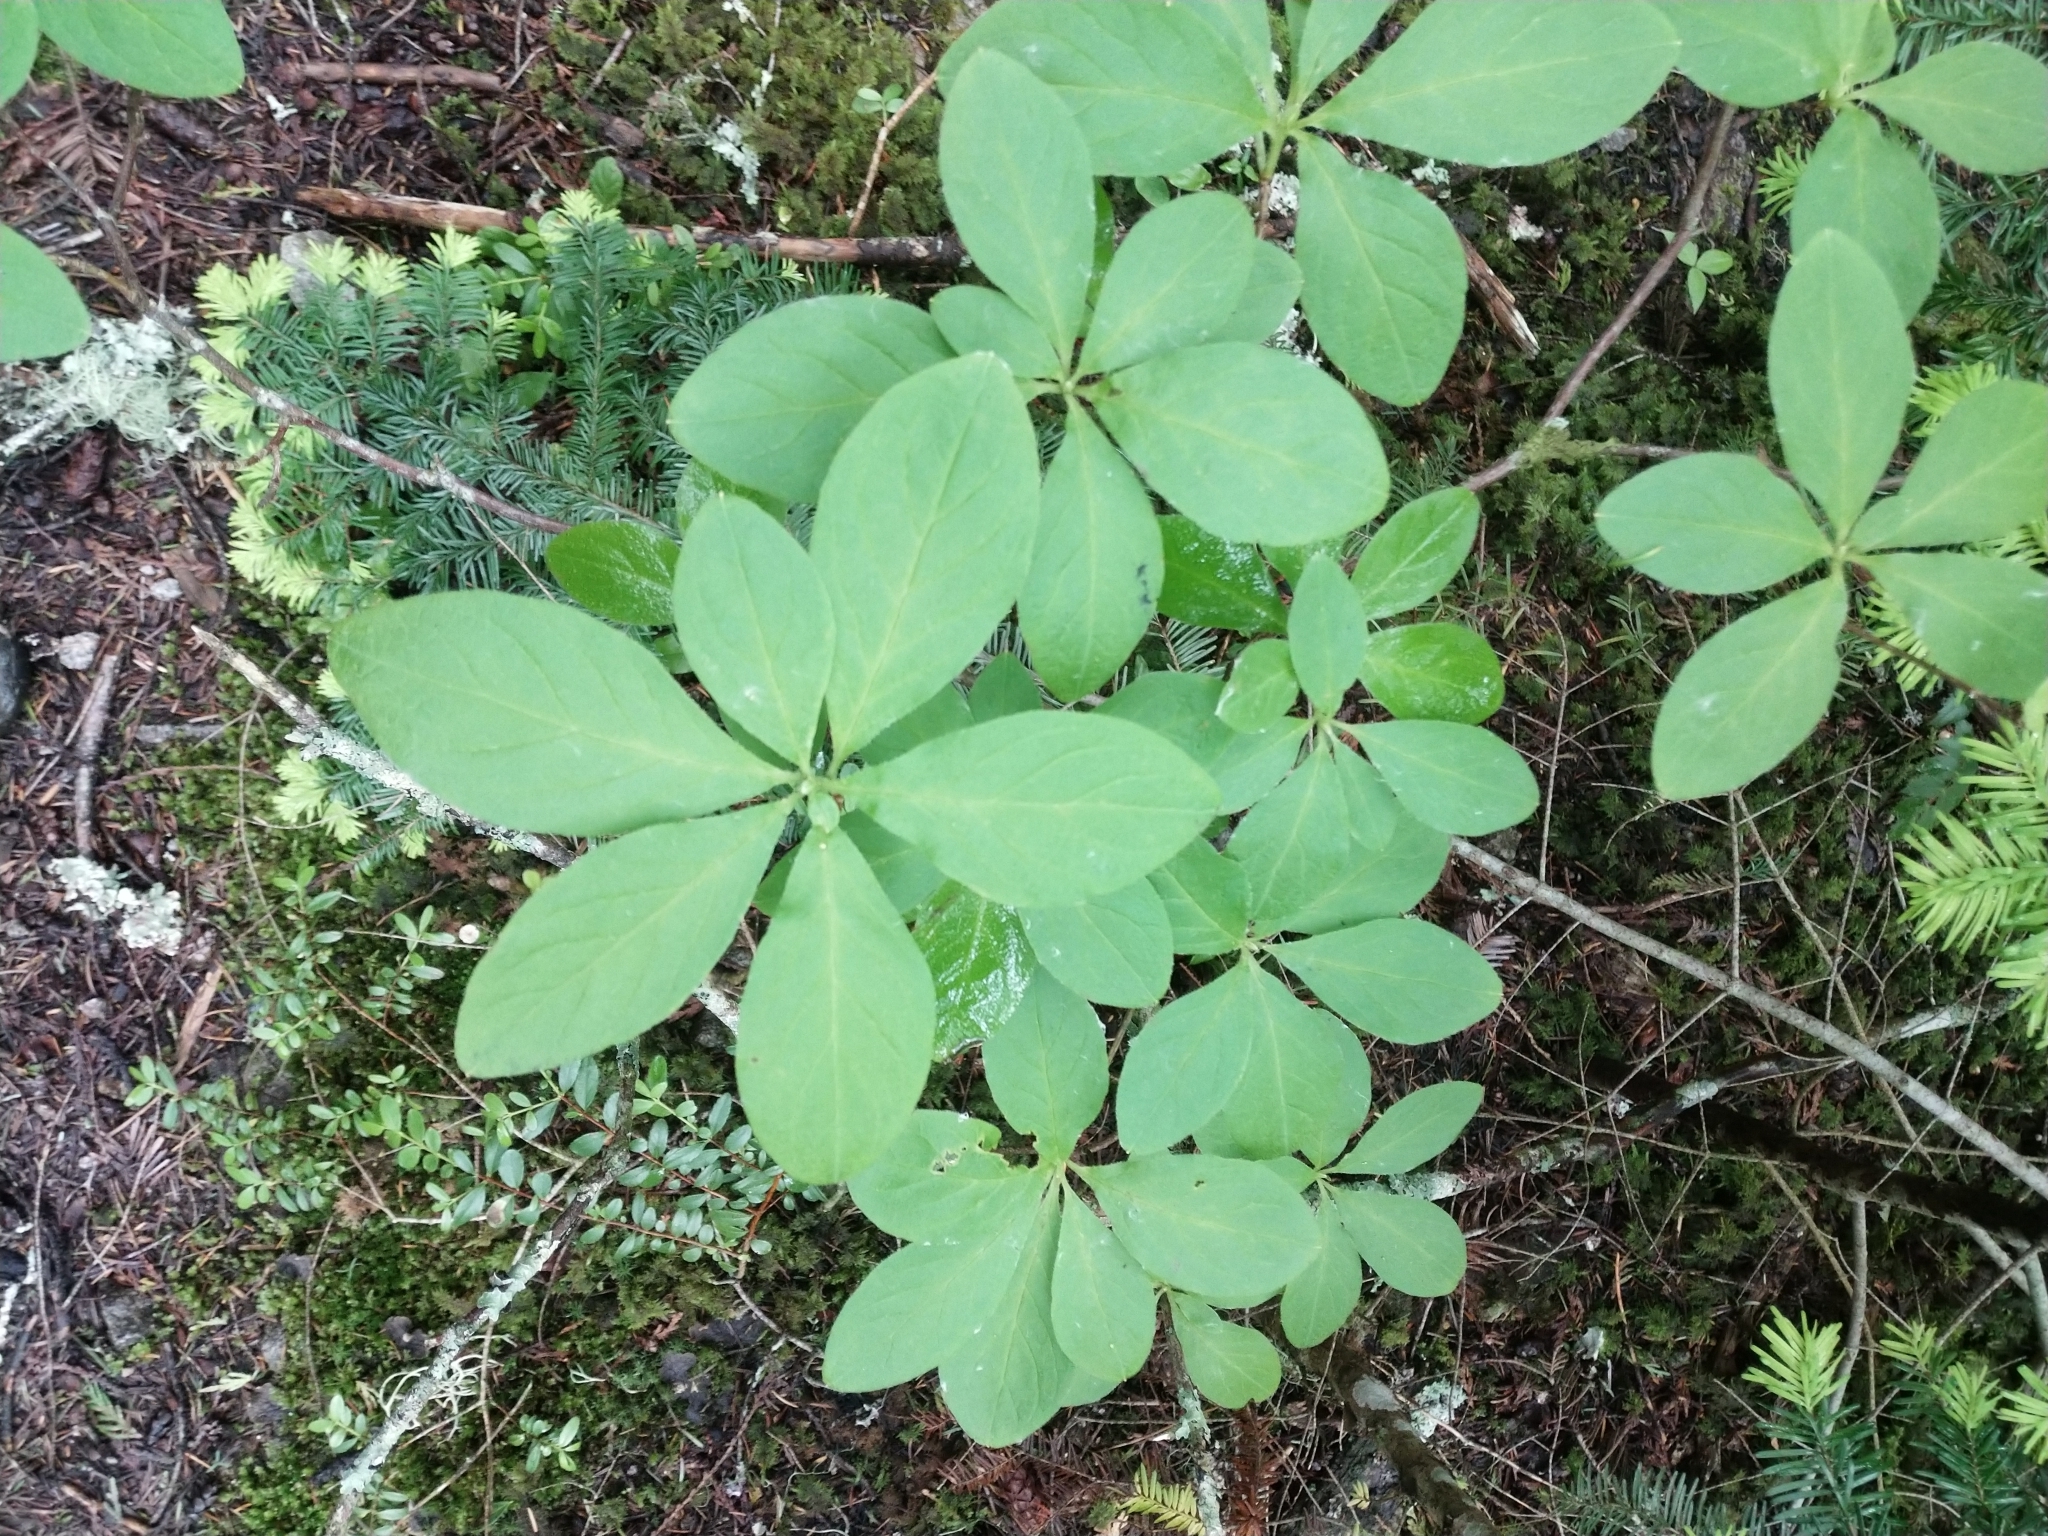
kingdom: Plantae
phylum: Tracheophyta
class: Magnoliopsida
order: Ericales
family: Ericaceae
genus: Rhododendron
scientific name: Rhododendron menziesii
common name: Pacific menziesia
